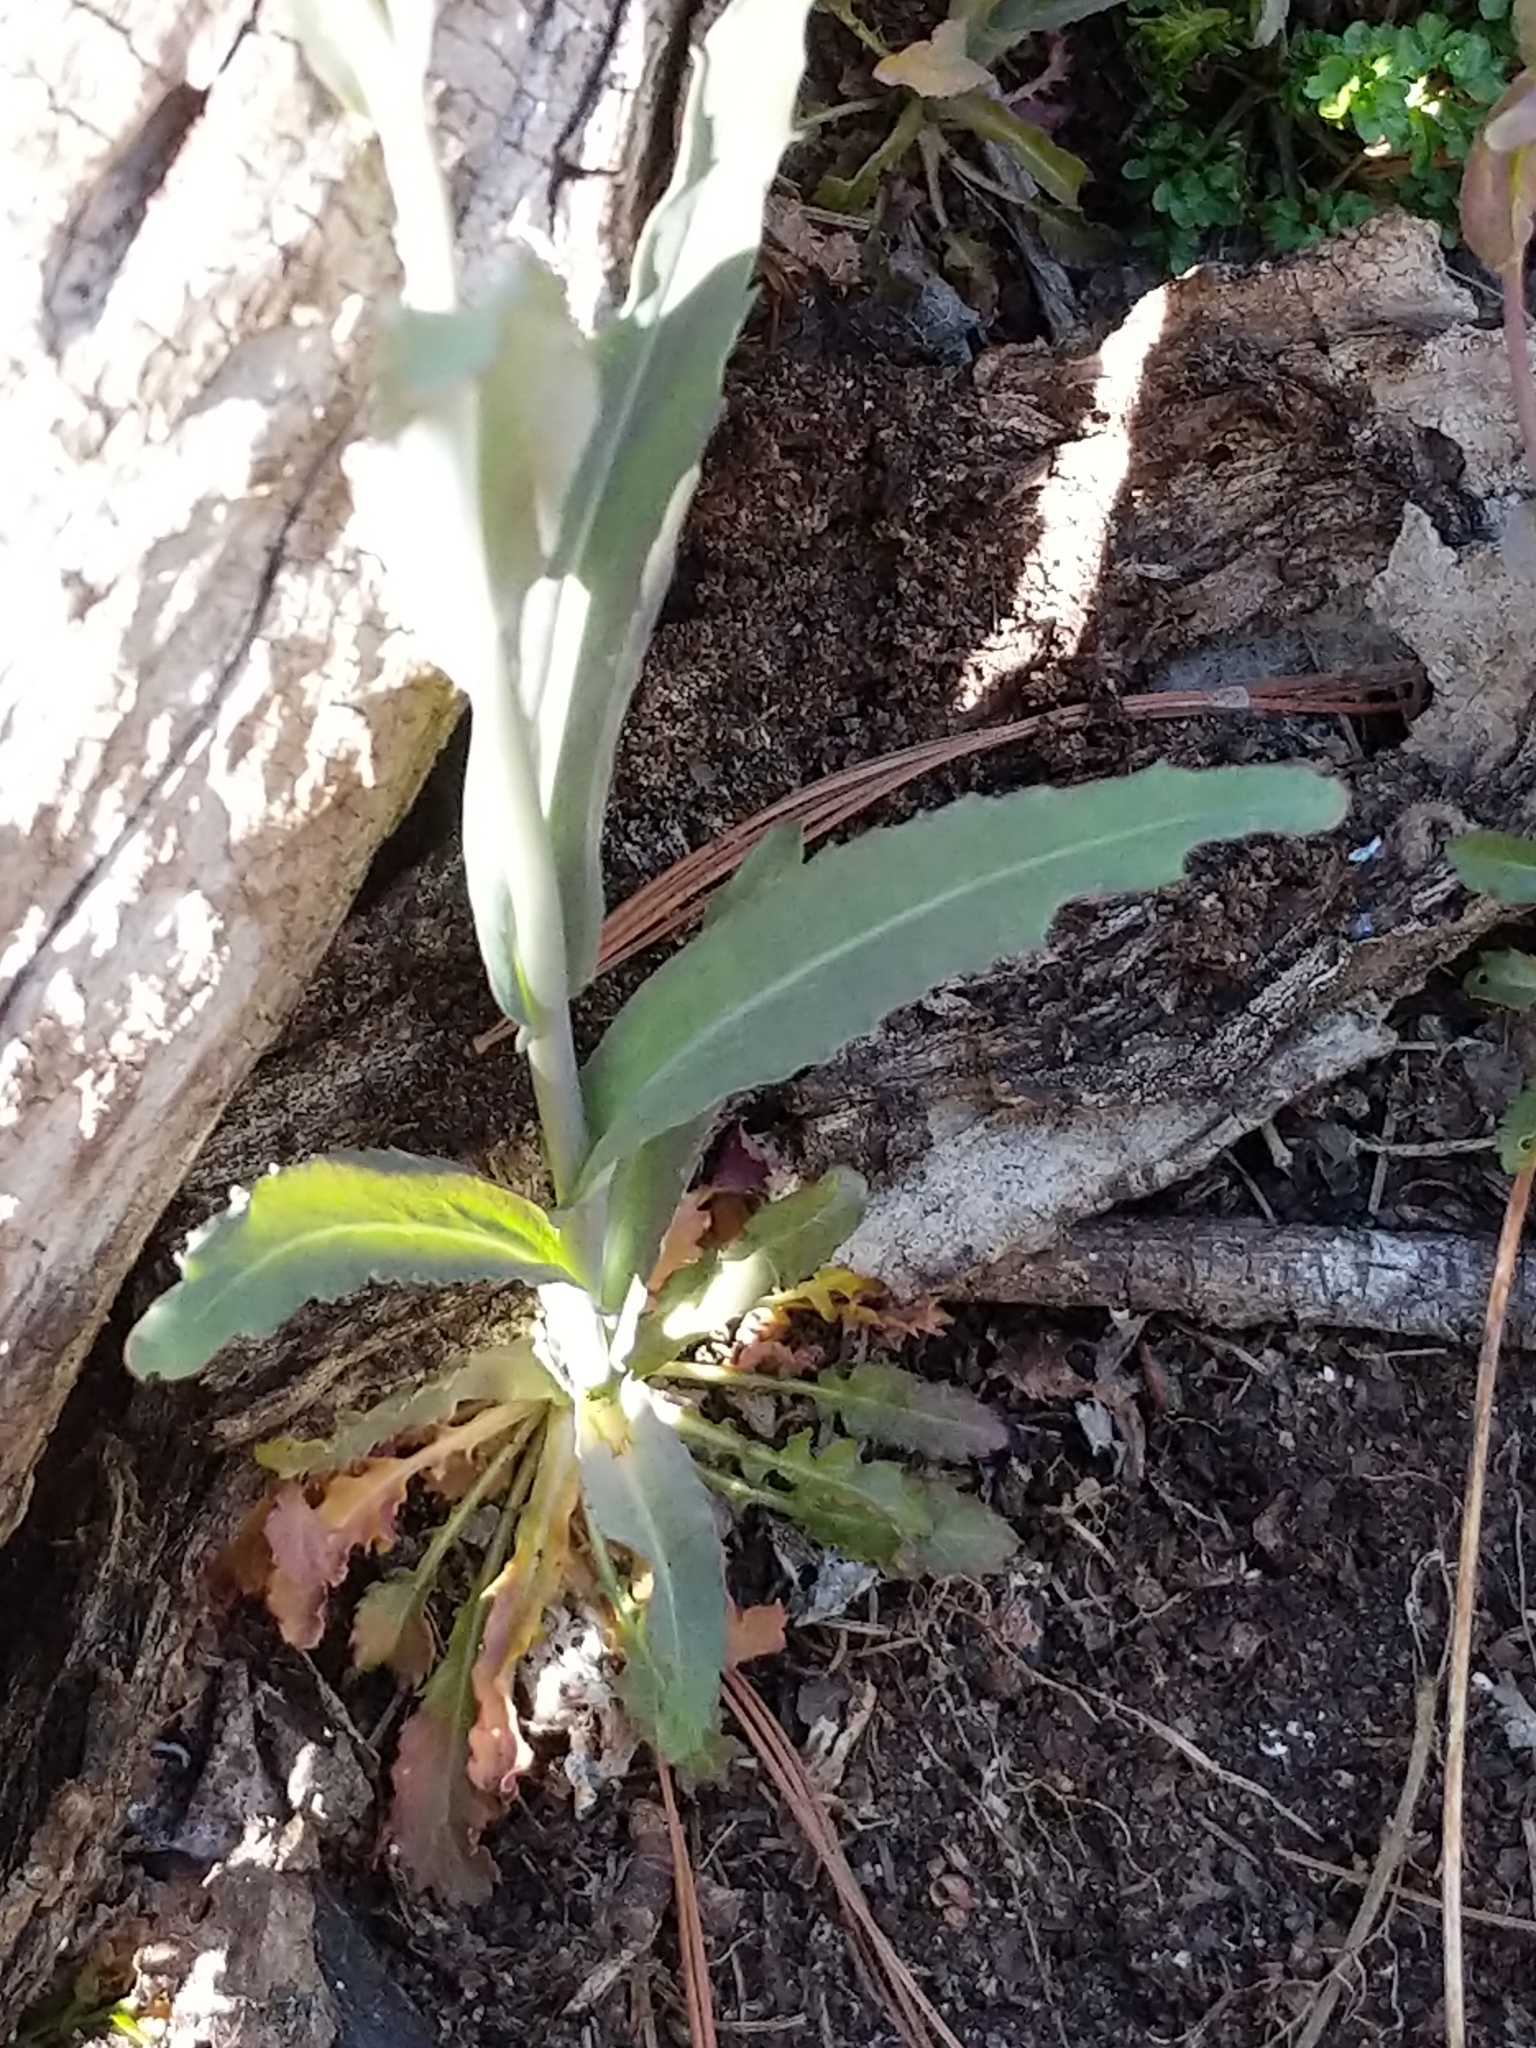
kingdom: Plantae
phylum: Tracheophyta
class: Magnoliopsida
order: Brassicales
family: Brassicaceae
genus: Borodinia
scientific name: Borodinia laevigata
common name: Smooth rockcress
